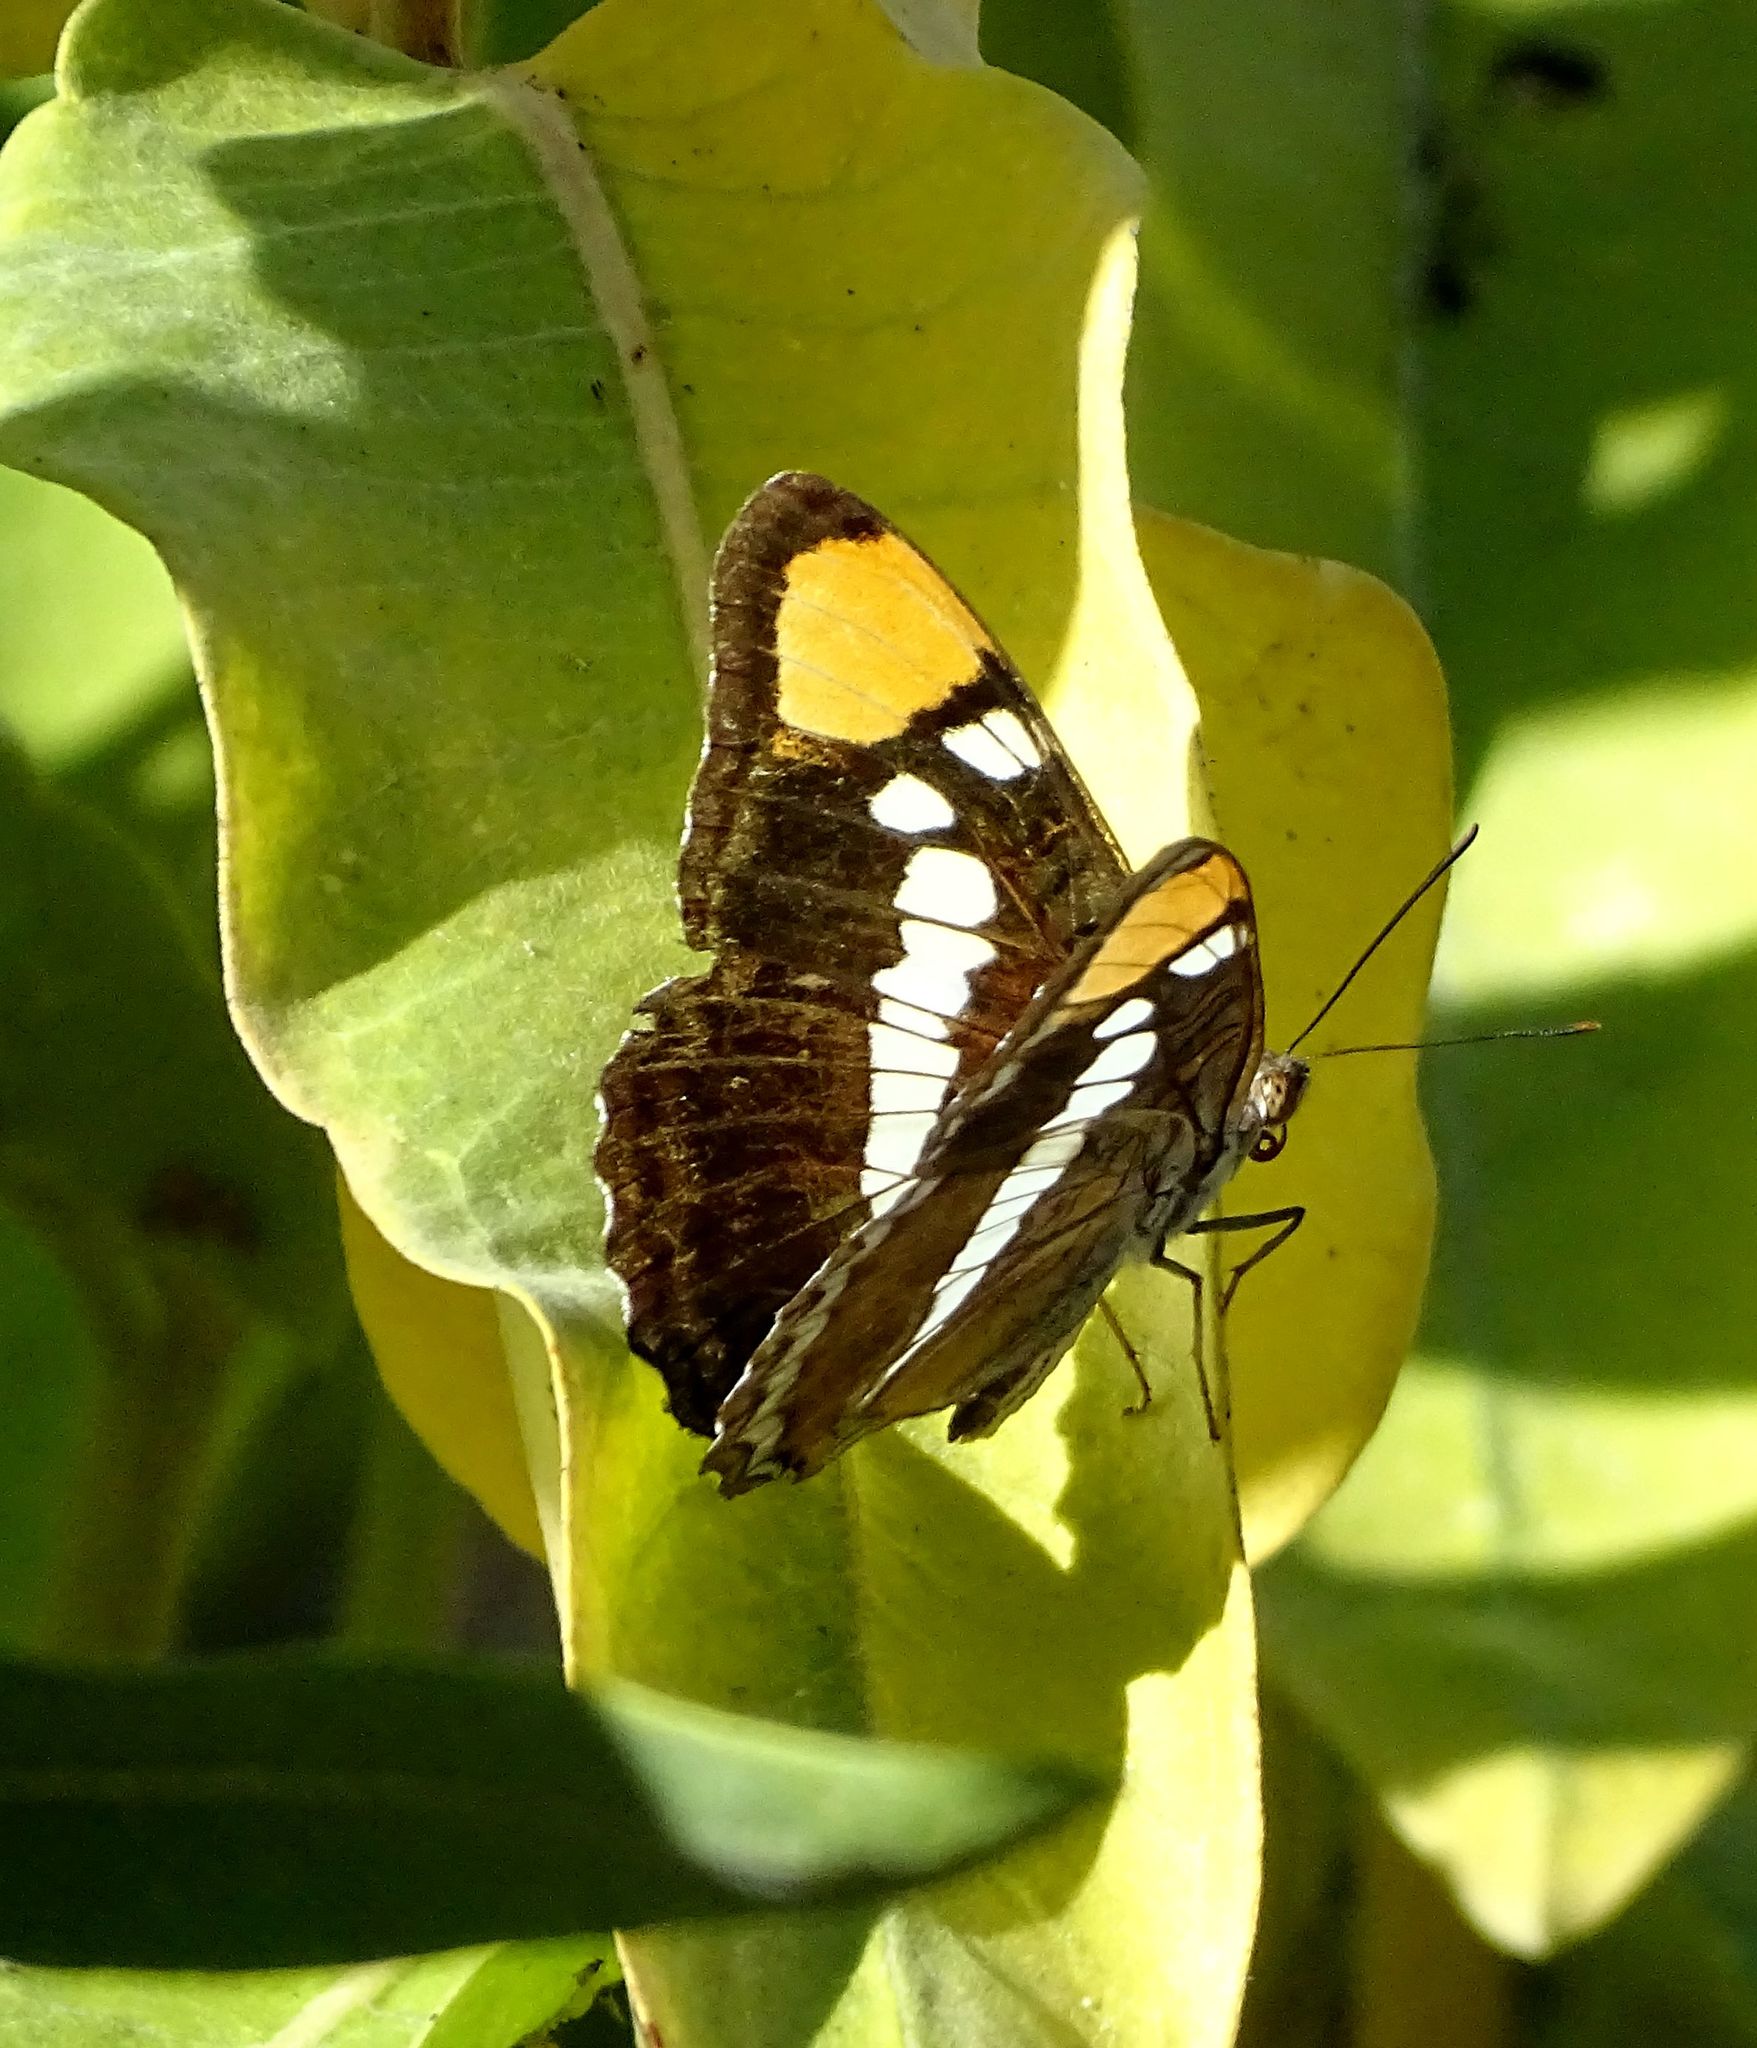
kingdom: Animalia
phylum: Arthropoda
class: Insecta
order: Lepidoptera
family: Nymphalidae
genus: Limenitis
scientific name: Limenitis bredowii
